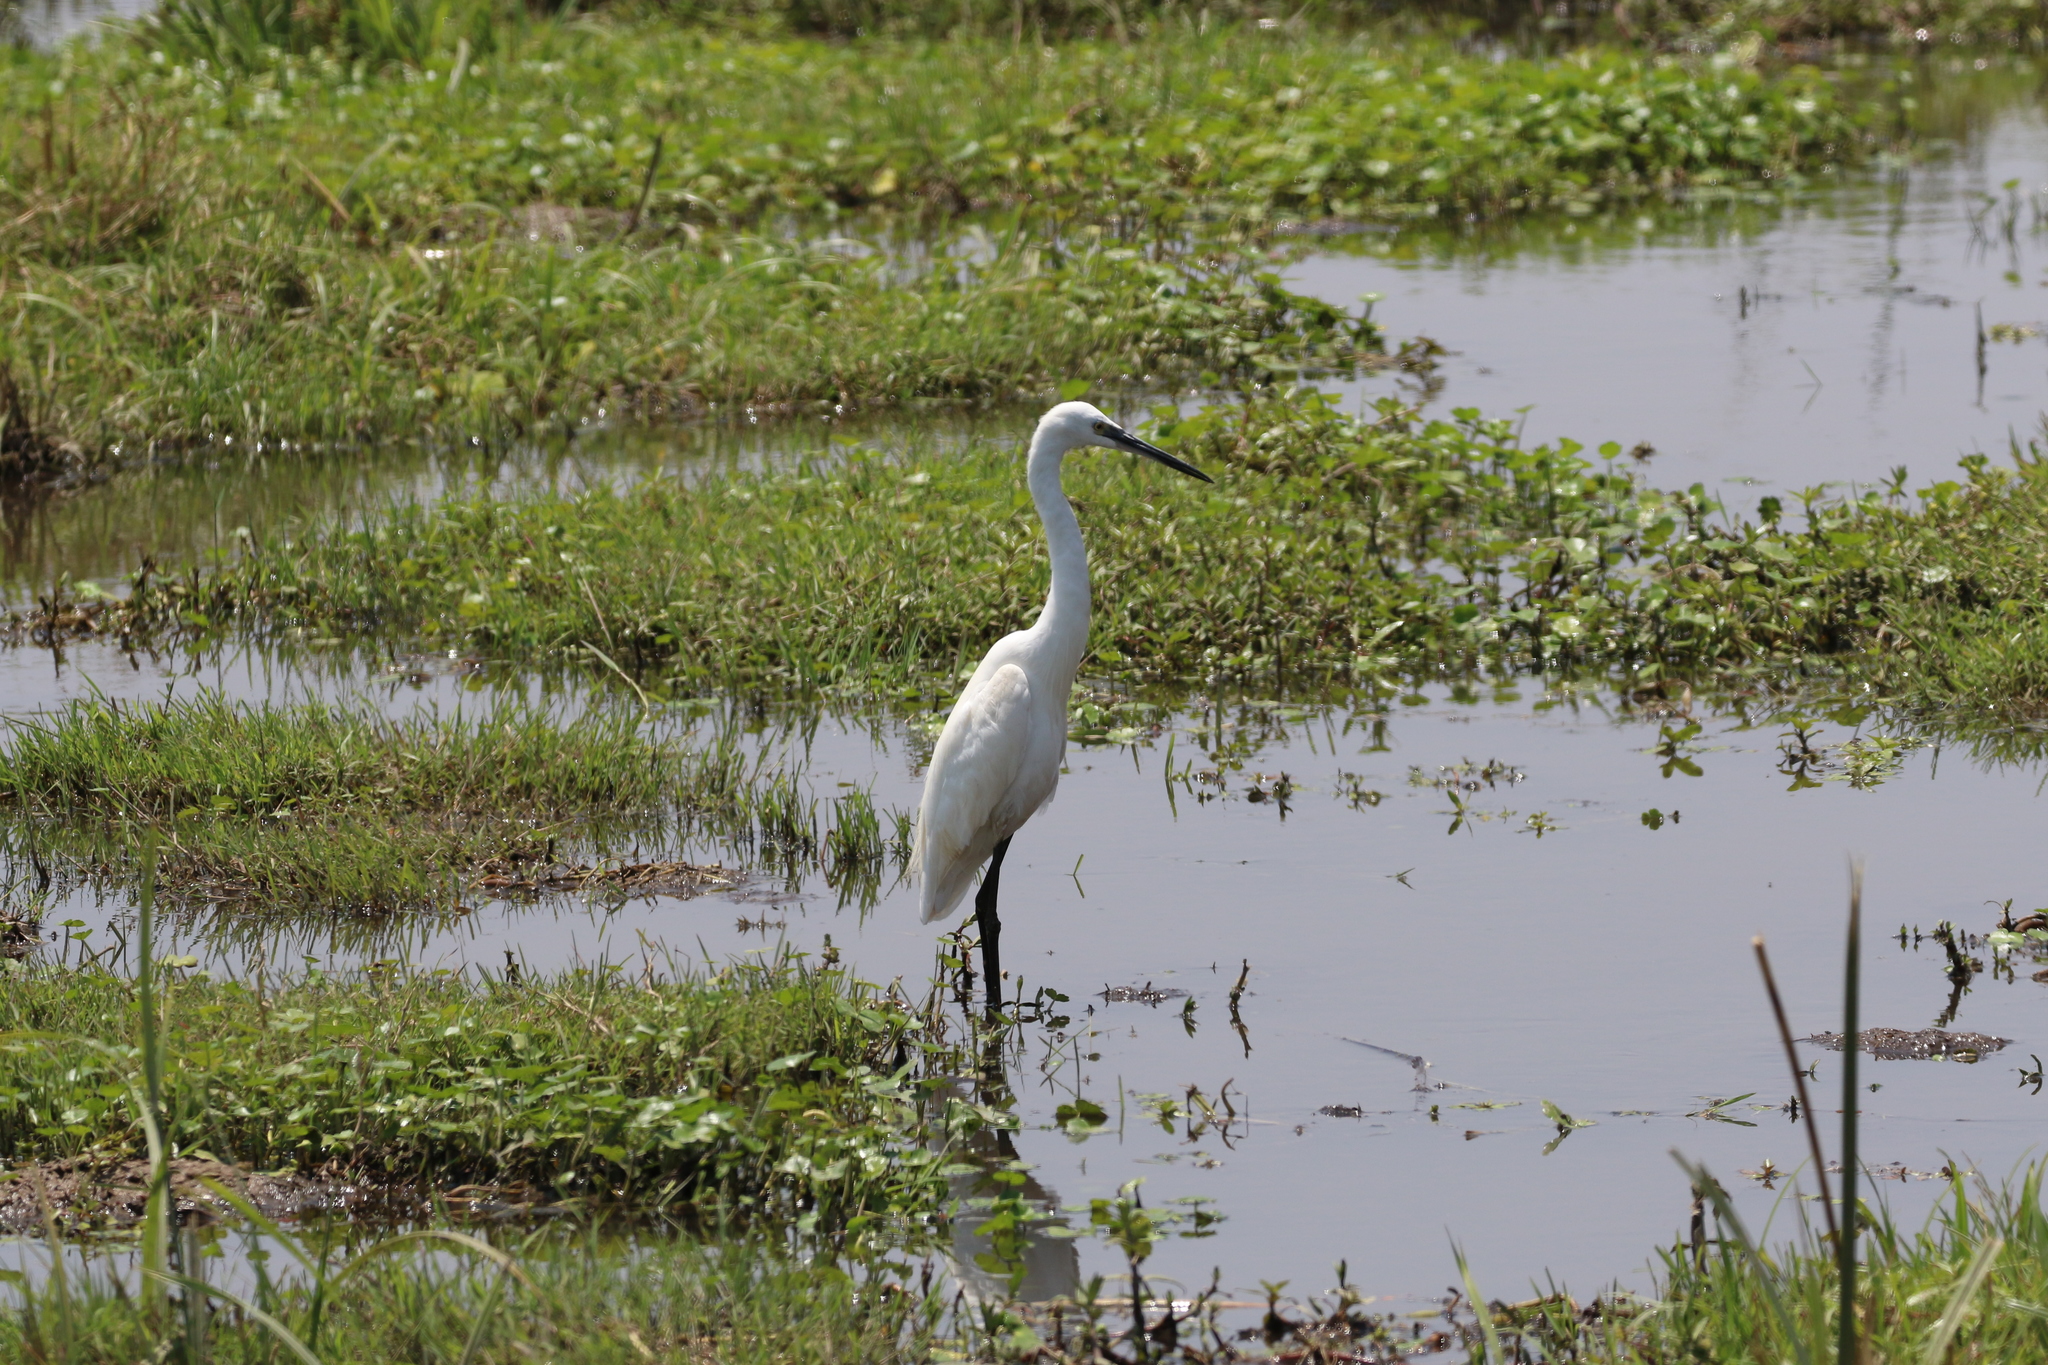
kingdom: Animalia
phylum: Chordata
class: Aves
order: Pelecaniformes
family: Ardeidae
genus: Egretta
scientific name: Egretta garzetta
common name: Little egret
